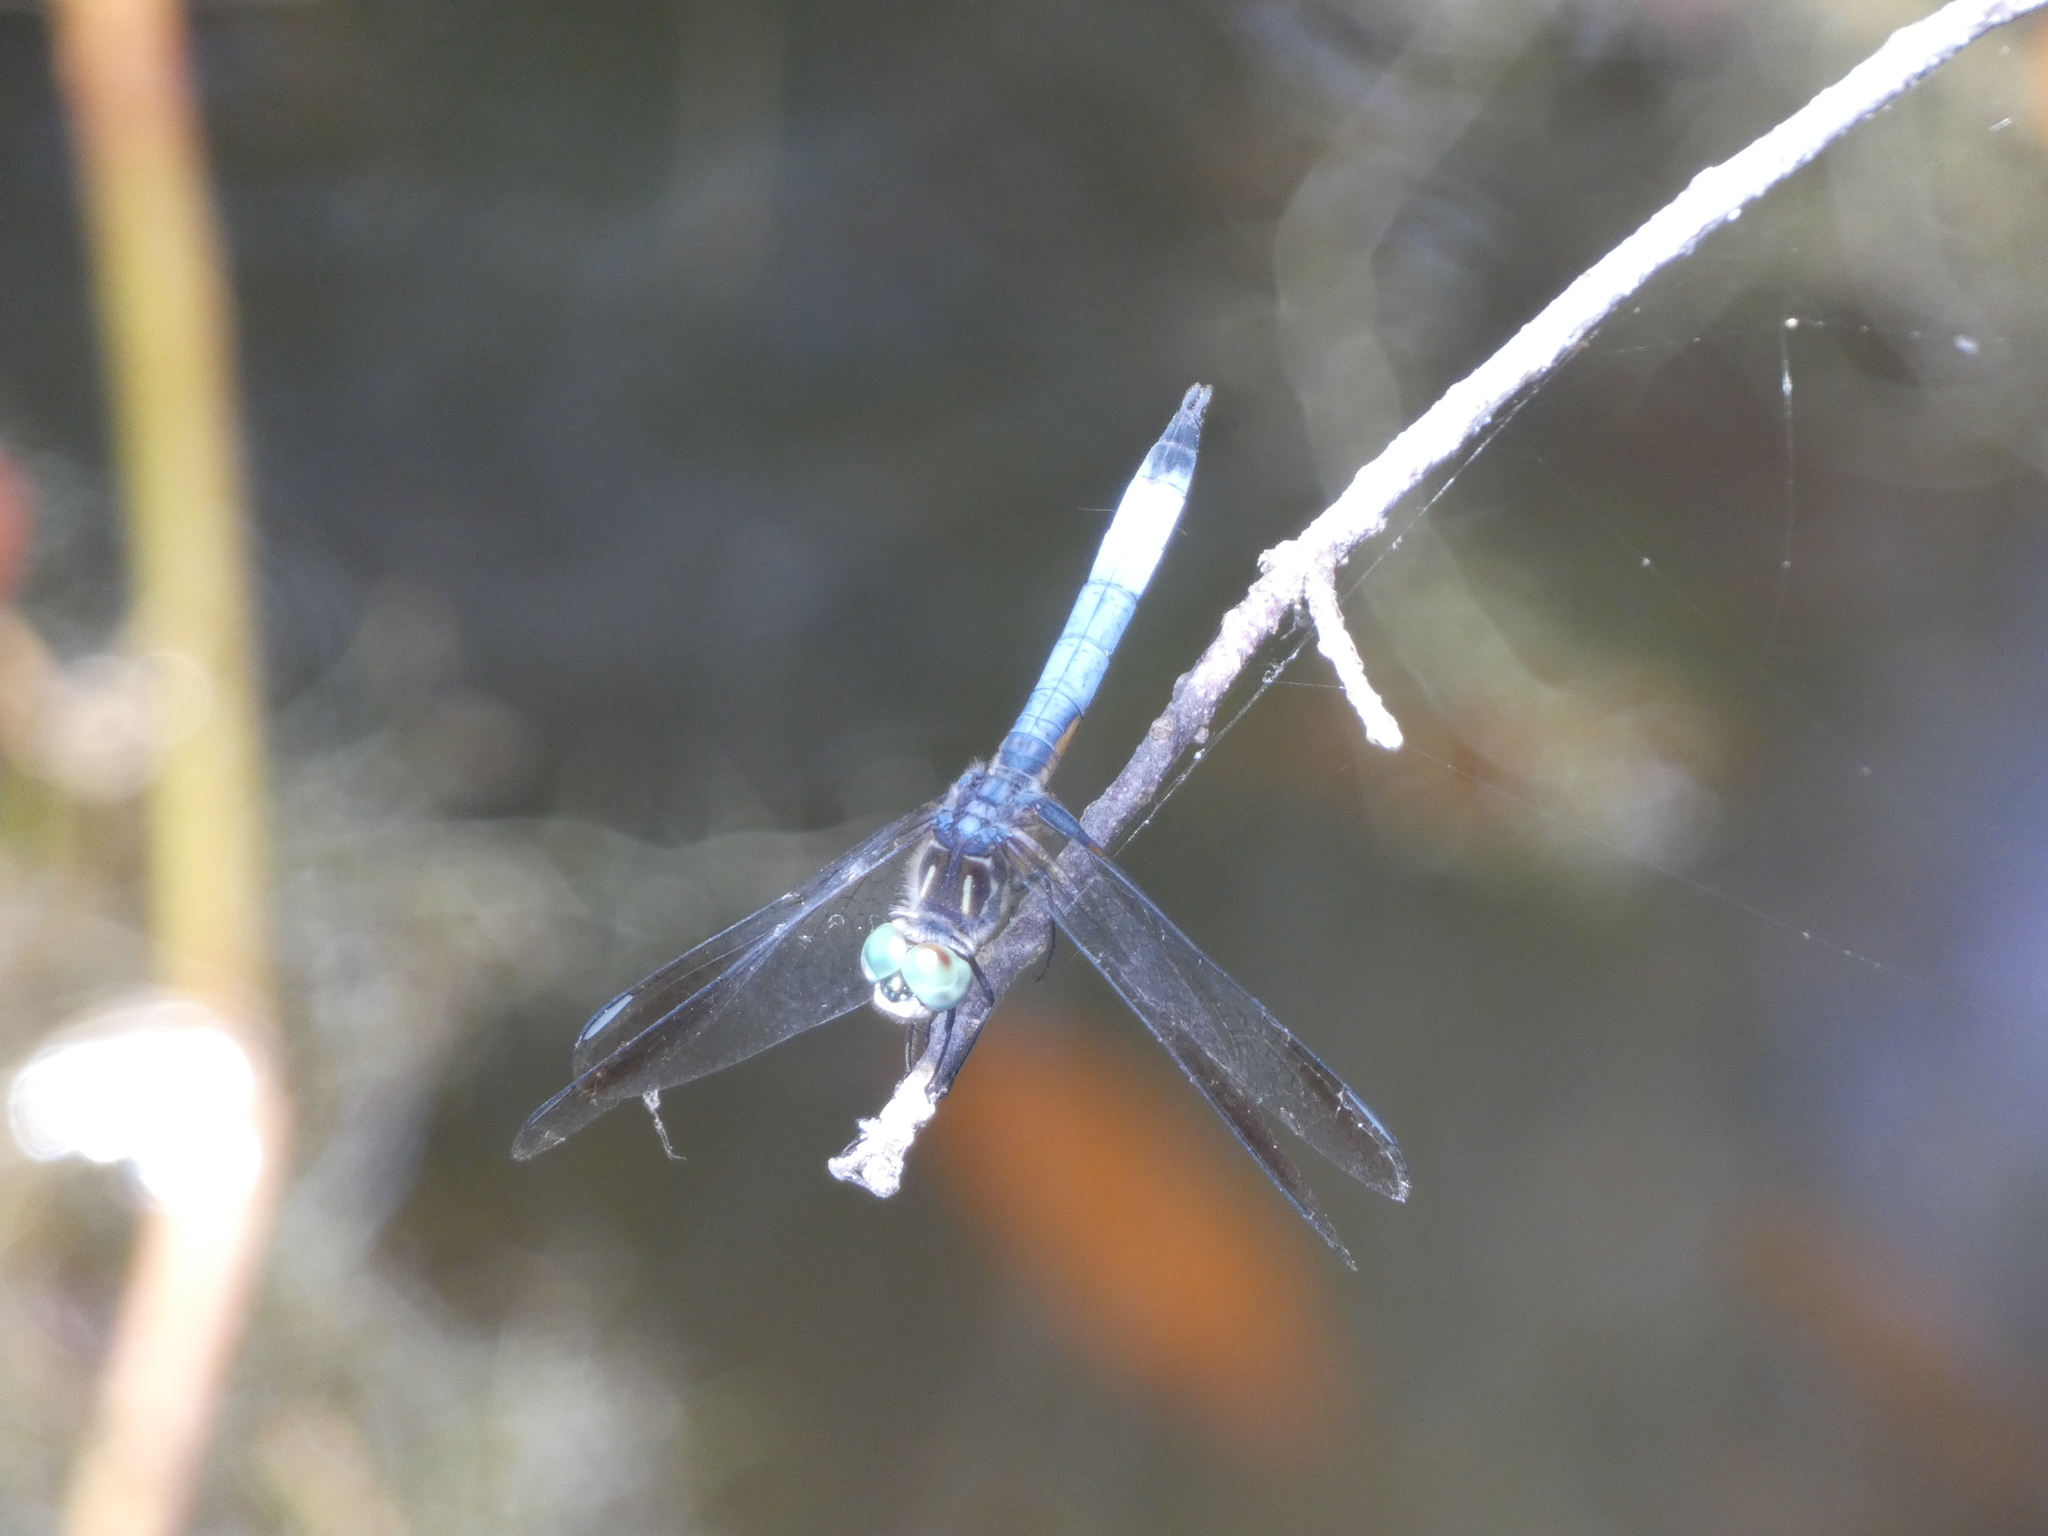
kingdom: Animalia
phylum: Arthropoda
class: Insecta
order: Odonata
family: Libellulidae
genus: Pachydiplax
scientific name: Pachydiplax longipennis
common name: Blue dasher
